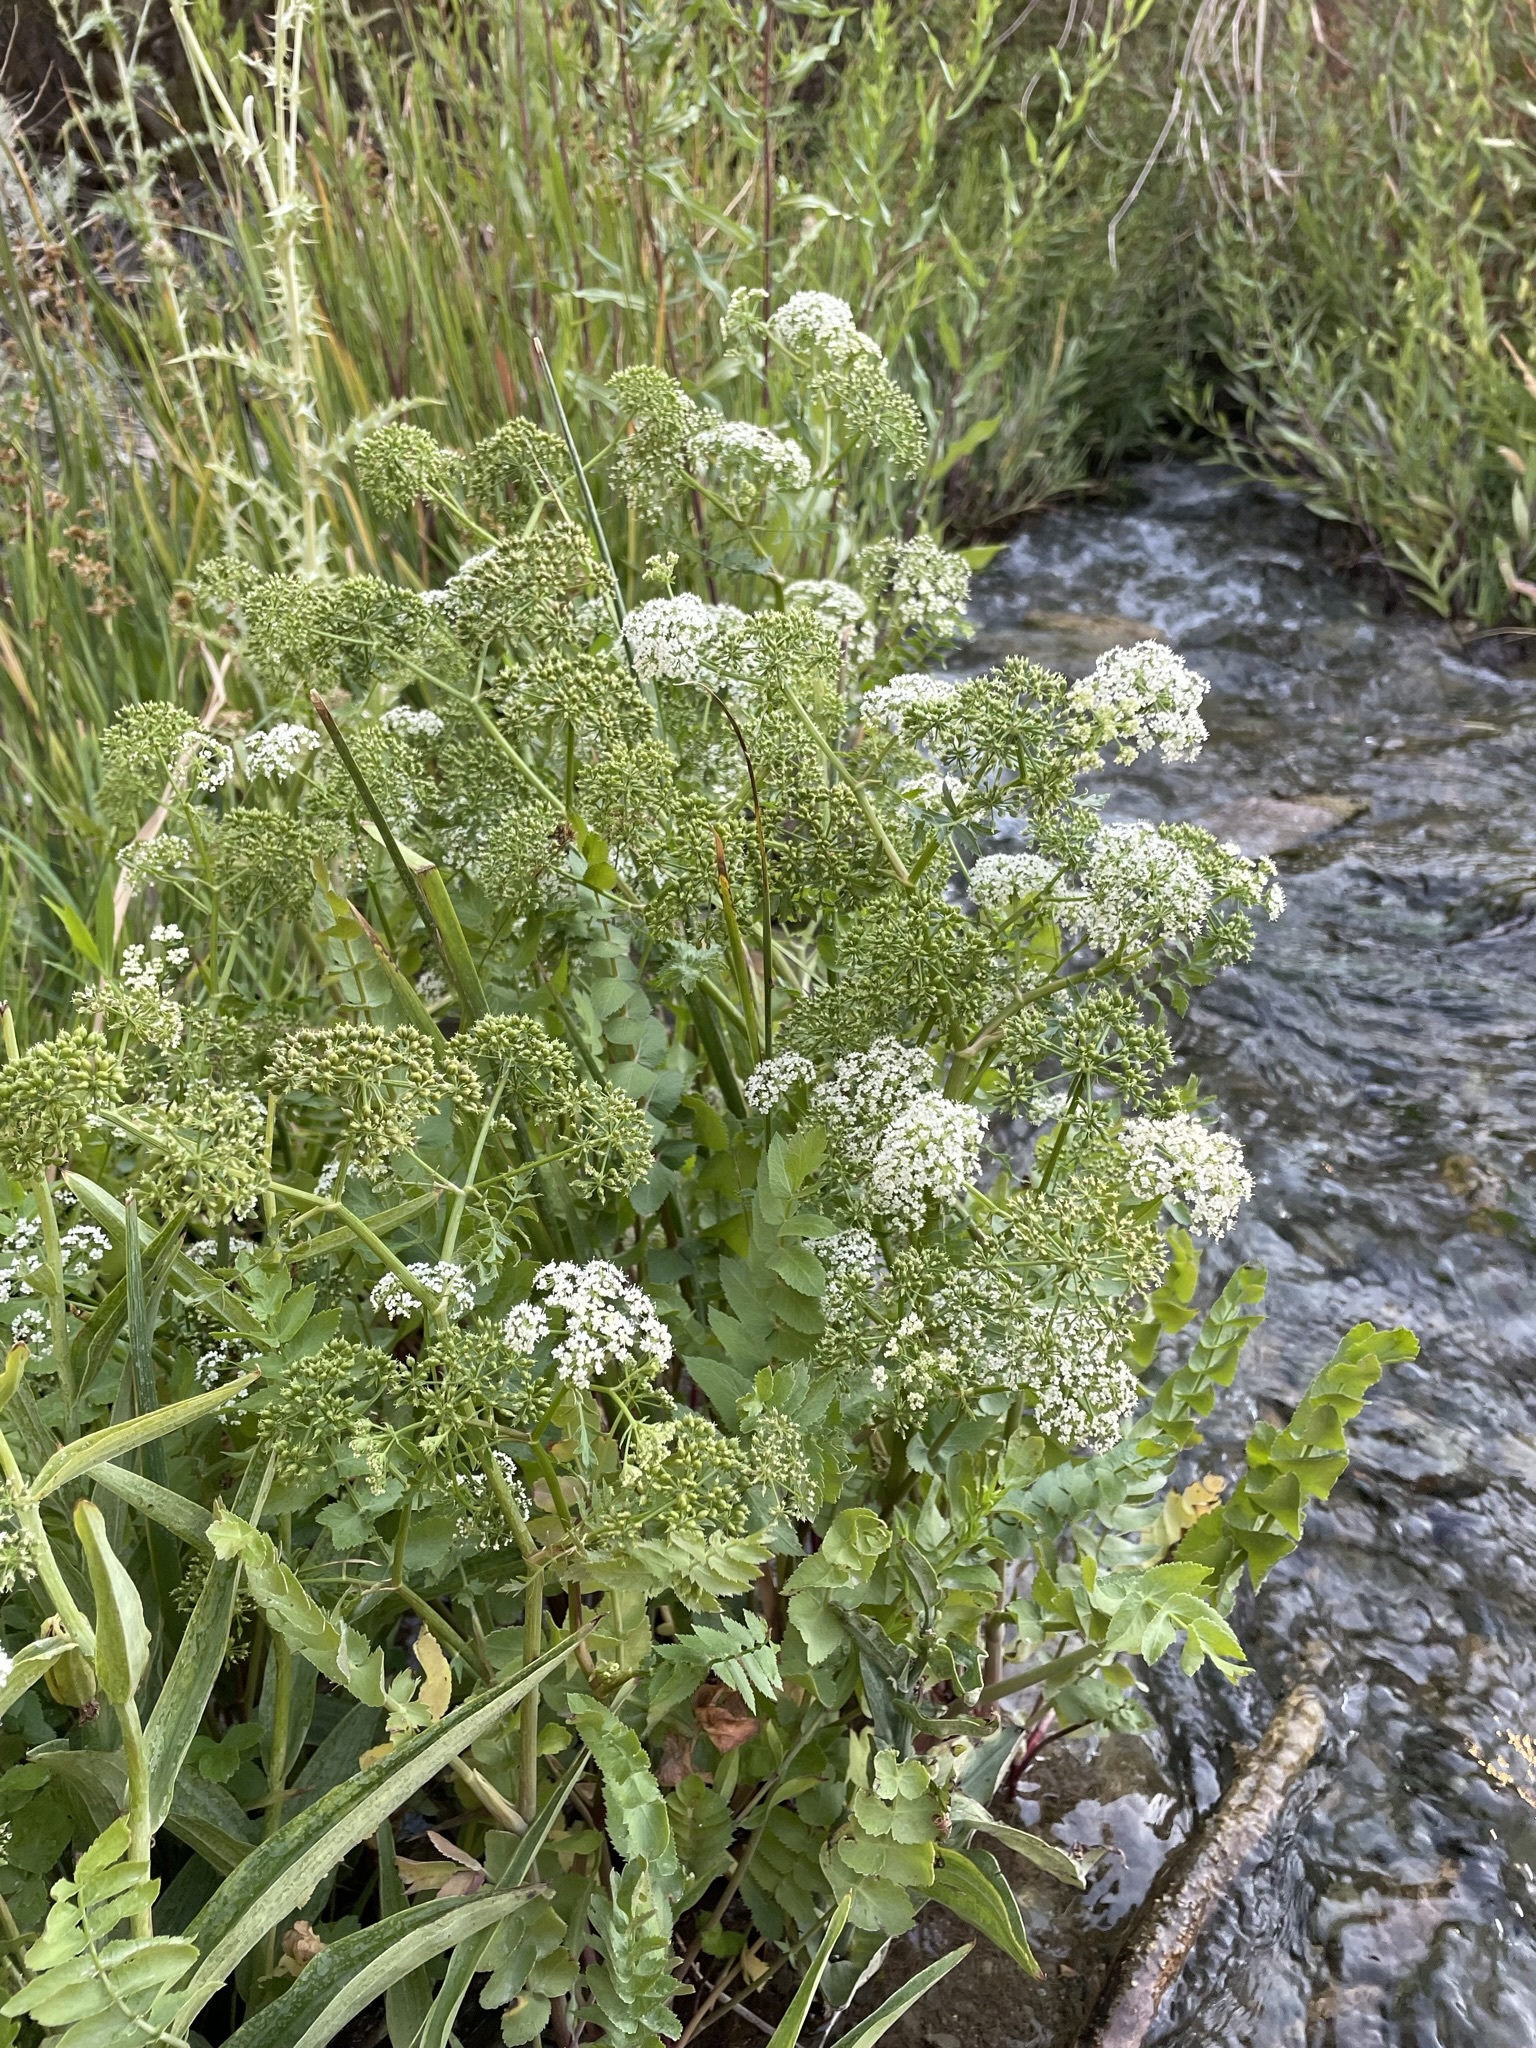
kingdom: Plantae
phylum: Tracheophyta
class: Magnoliopsida
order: Apiales
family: Apiaceae
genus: Berula
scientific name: Berula erecta
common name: Lesser water-parsnip
